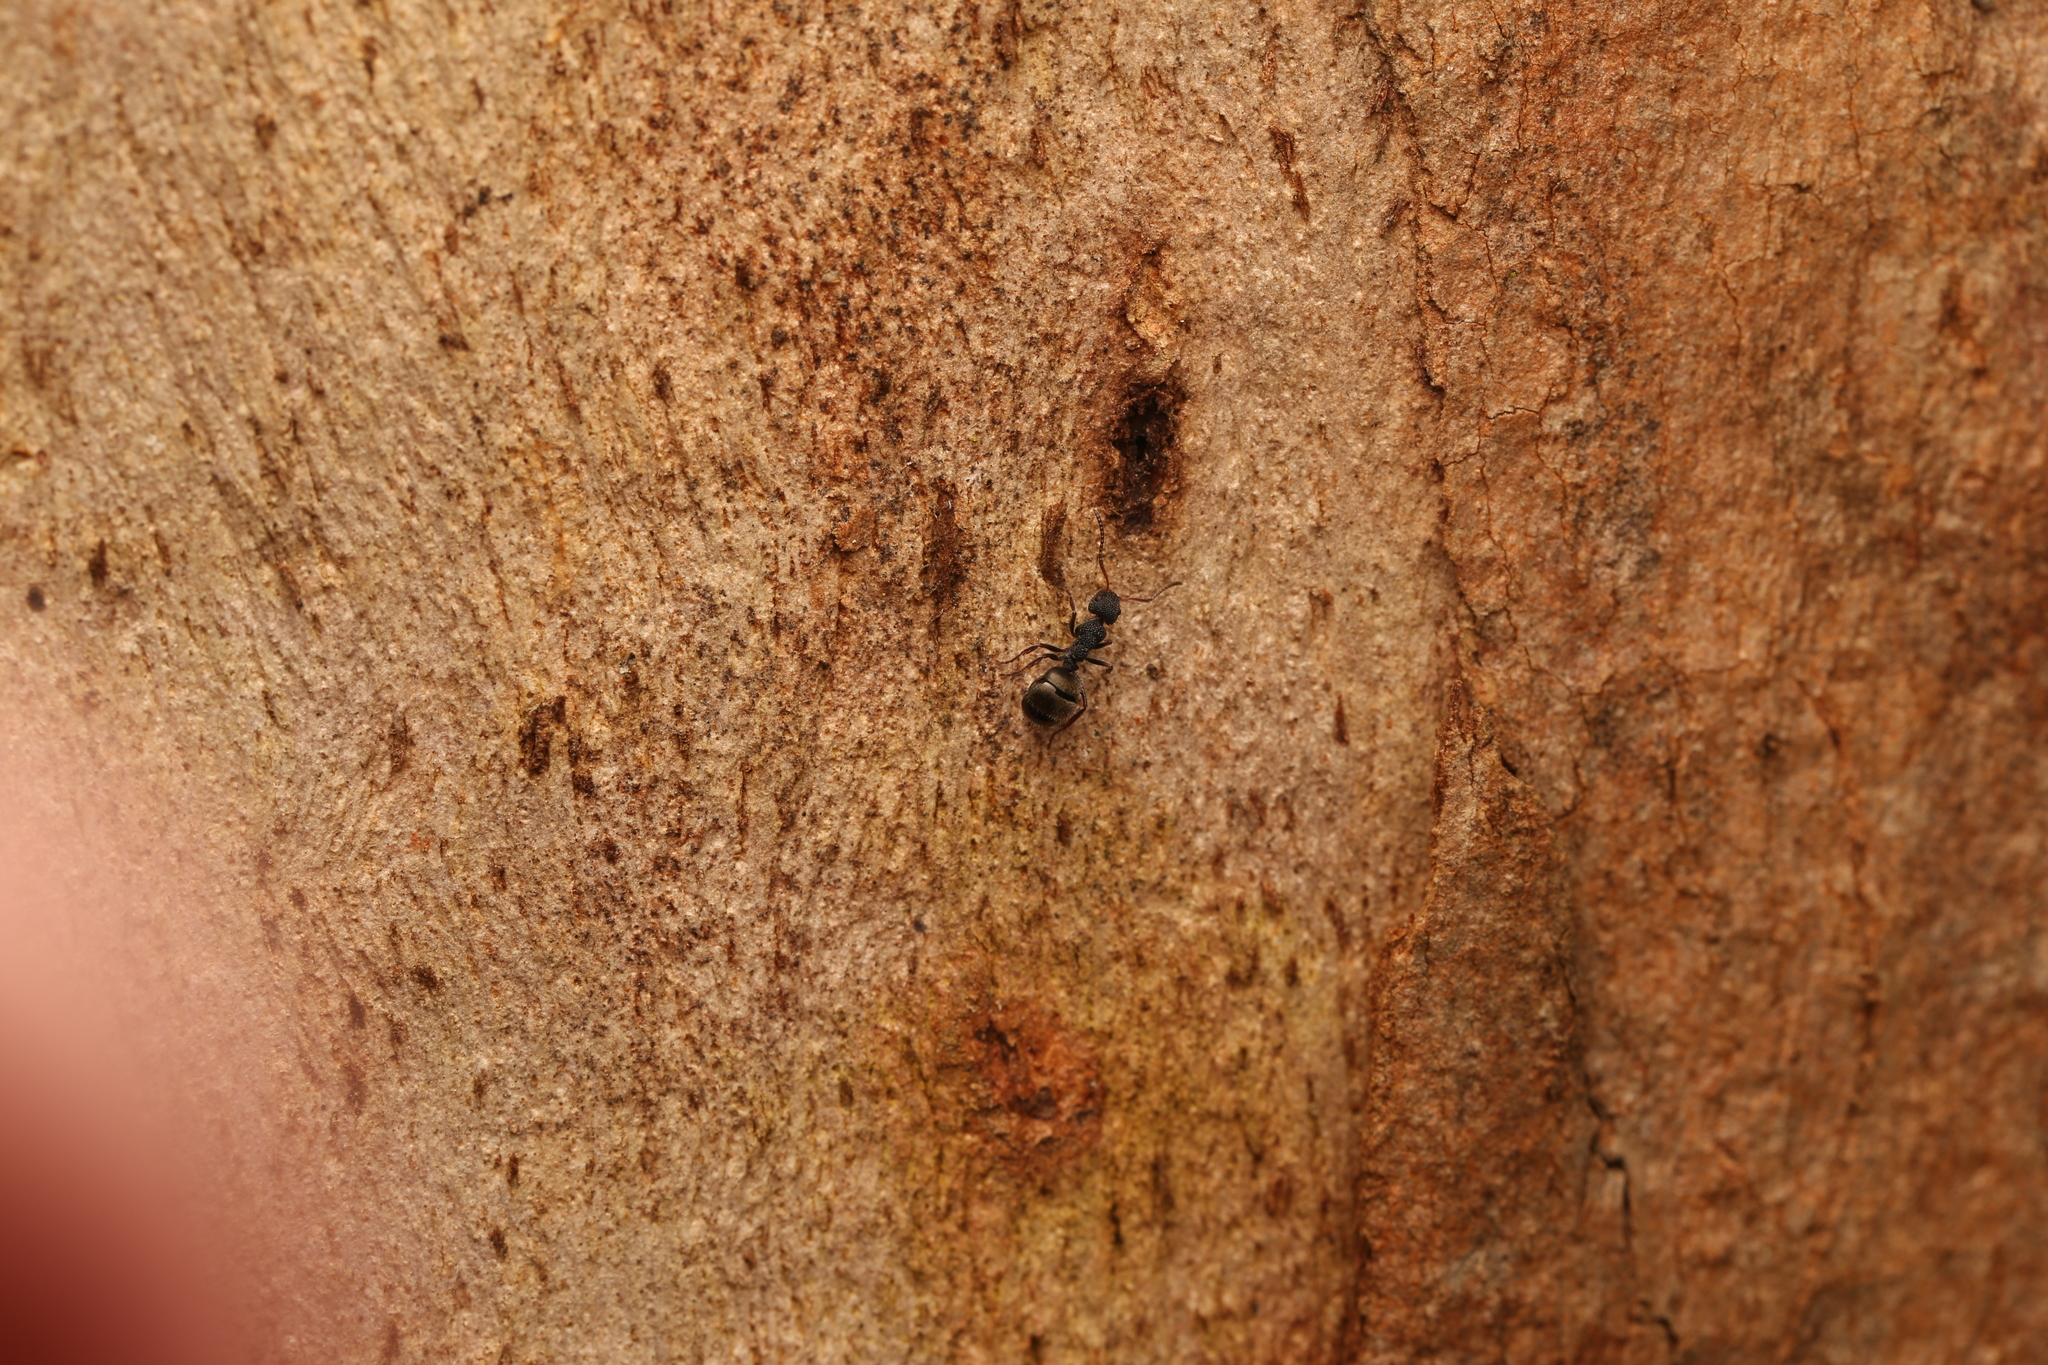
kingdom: Animalia
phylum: Arthropoda
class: Insecta
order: Hymenoptera
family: Formicidae
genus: Dolichoderus
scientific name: Dolichoderus scrobiculatus
